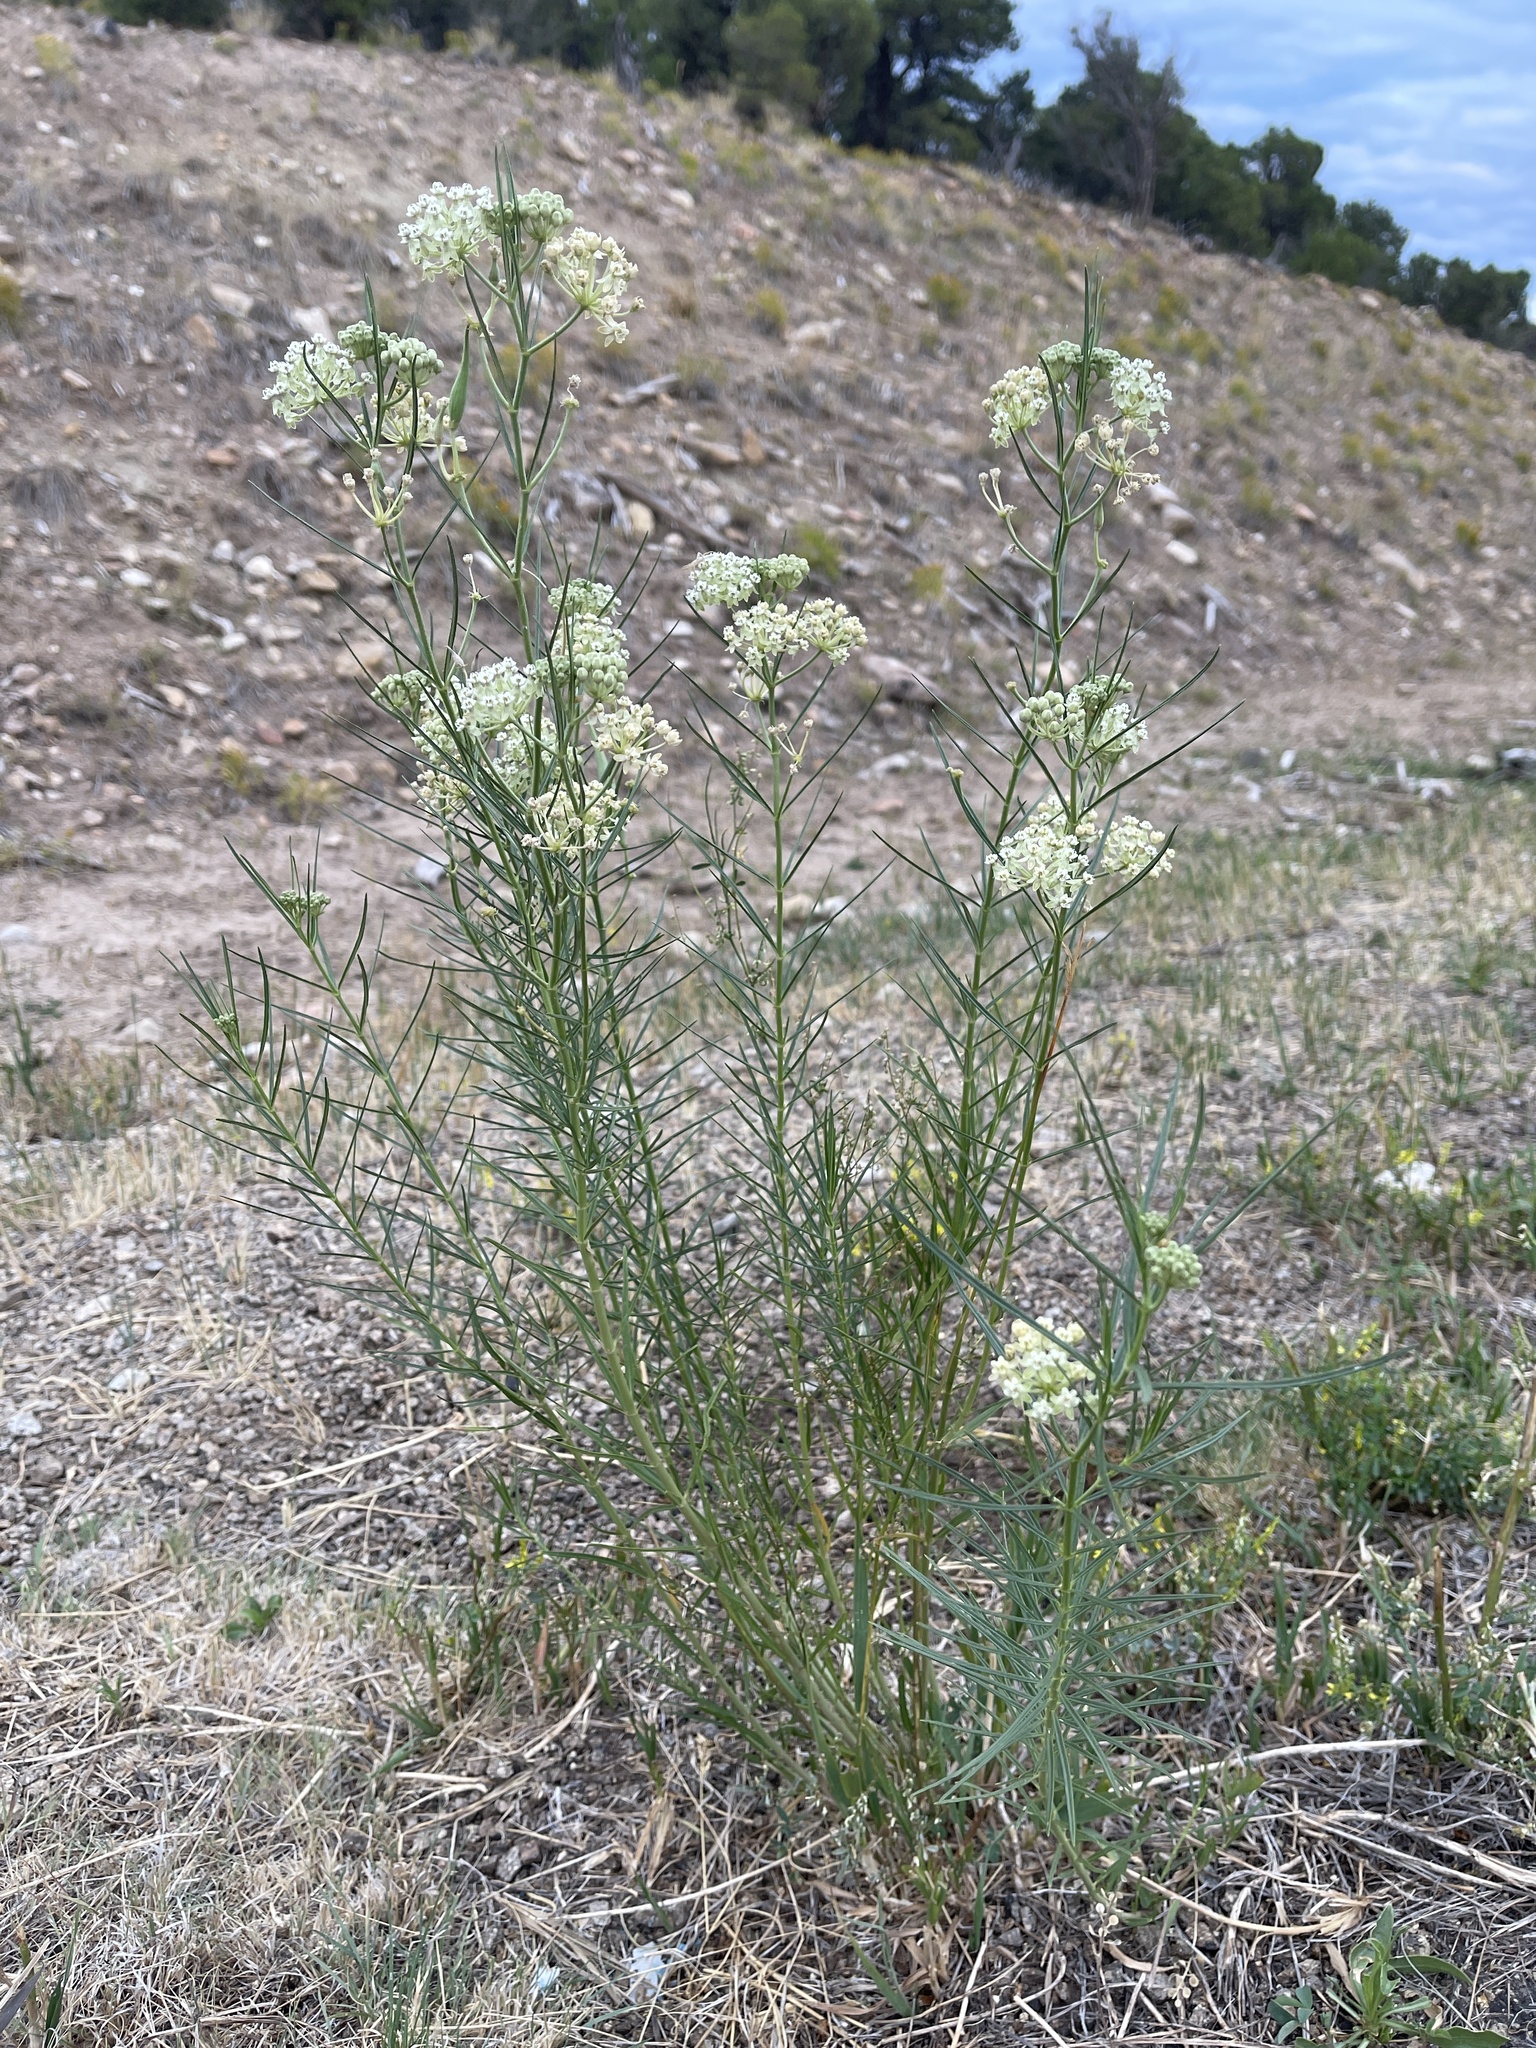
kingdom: Plantae
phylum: Tracheophyta
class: Magnoliopsida
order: Gentianales
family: Apocynaceae
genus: Asclepias
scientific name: Asclepias subverticillata
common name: Horsetail milkweed
